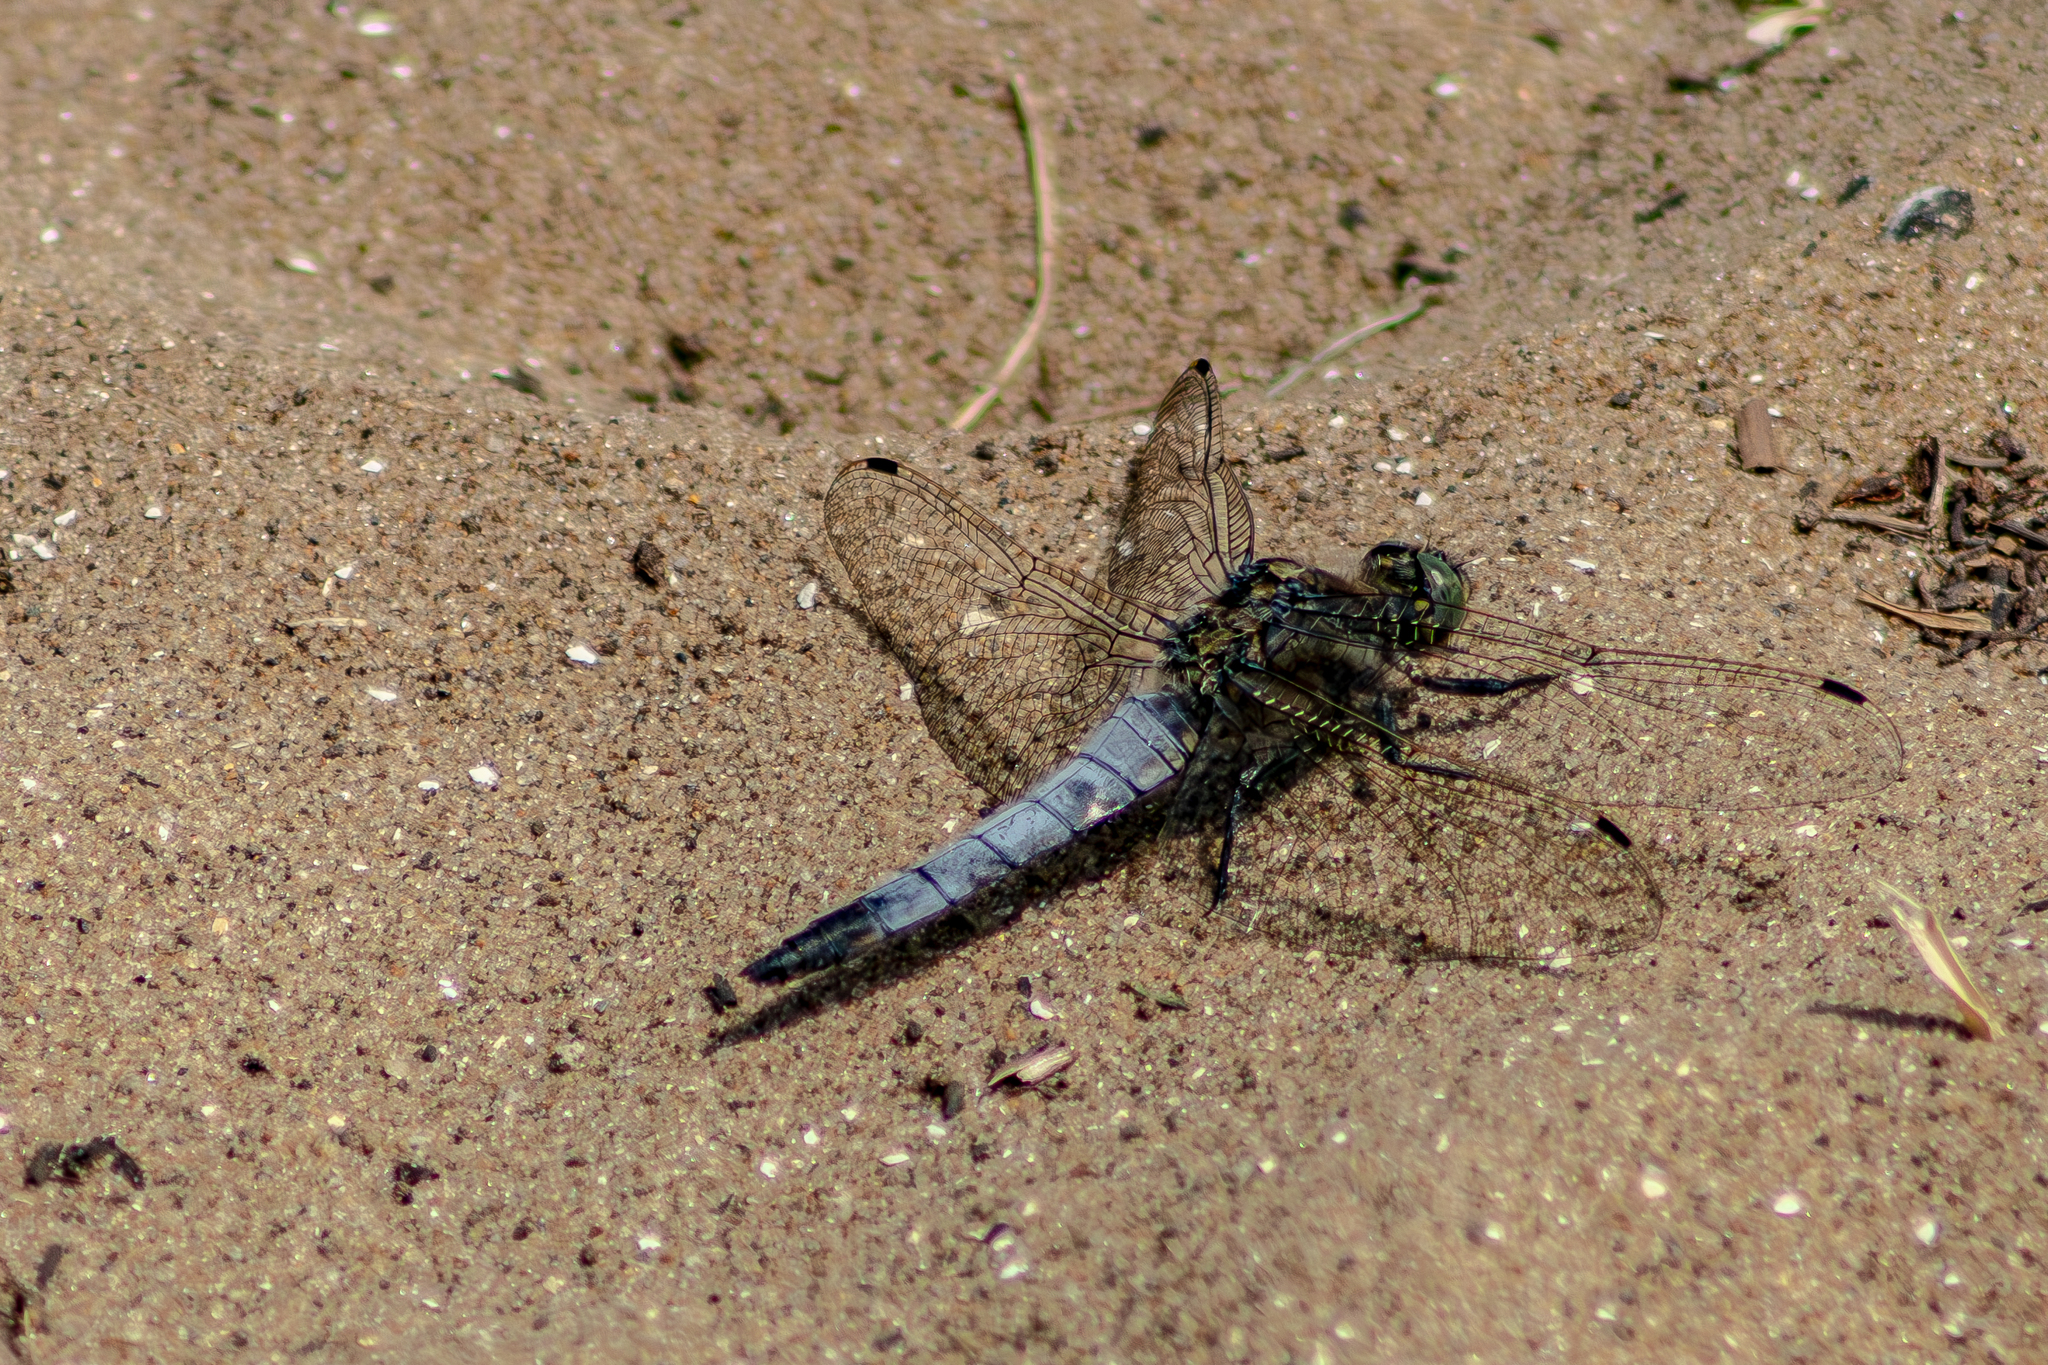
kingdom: Animalia
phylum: Arthropoda
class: Insecta
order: Odonata
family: Libellulidae
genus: Orthetrum
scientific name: Orthetrum cancellatum
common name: Black-tailed skimmer
